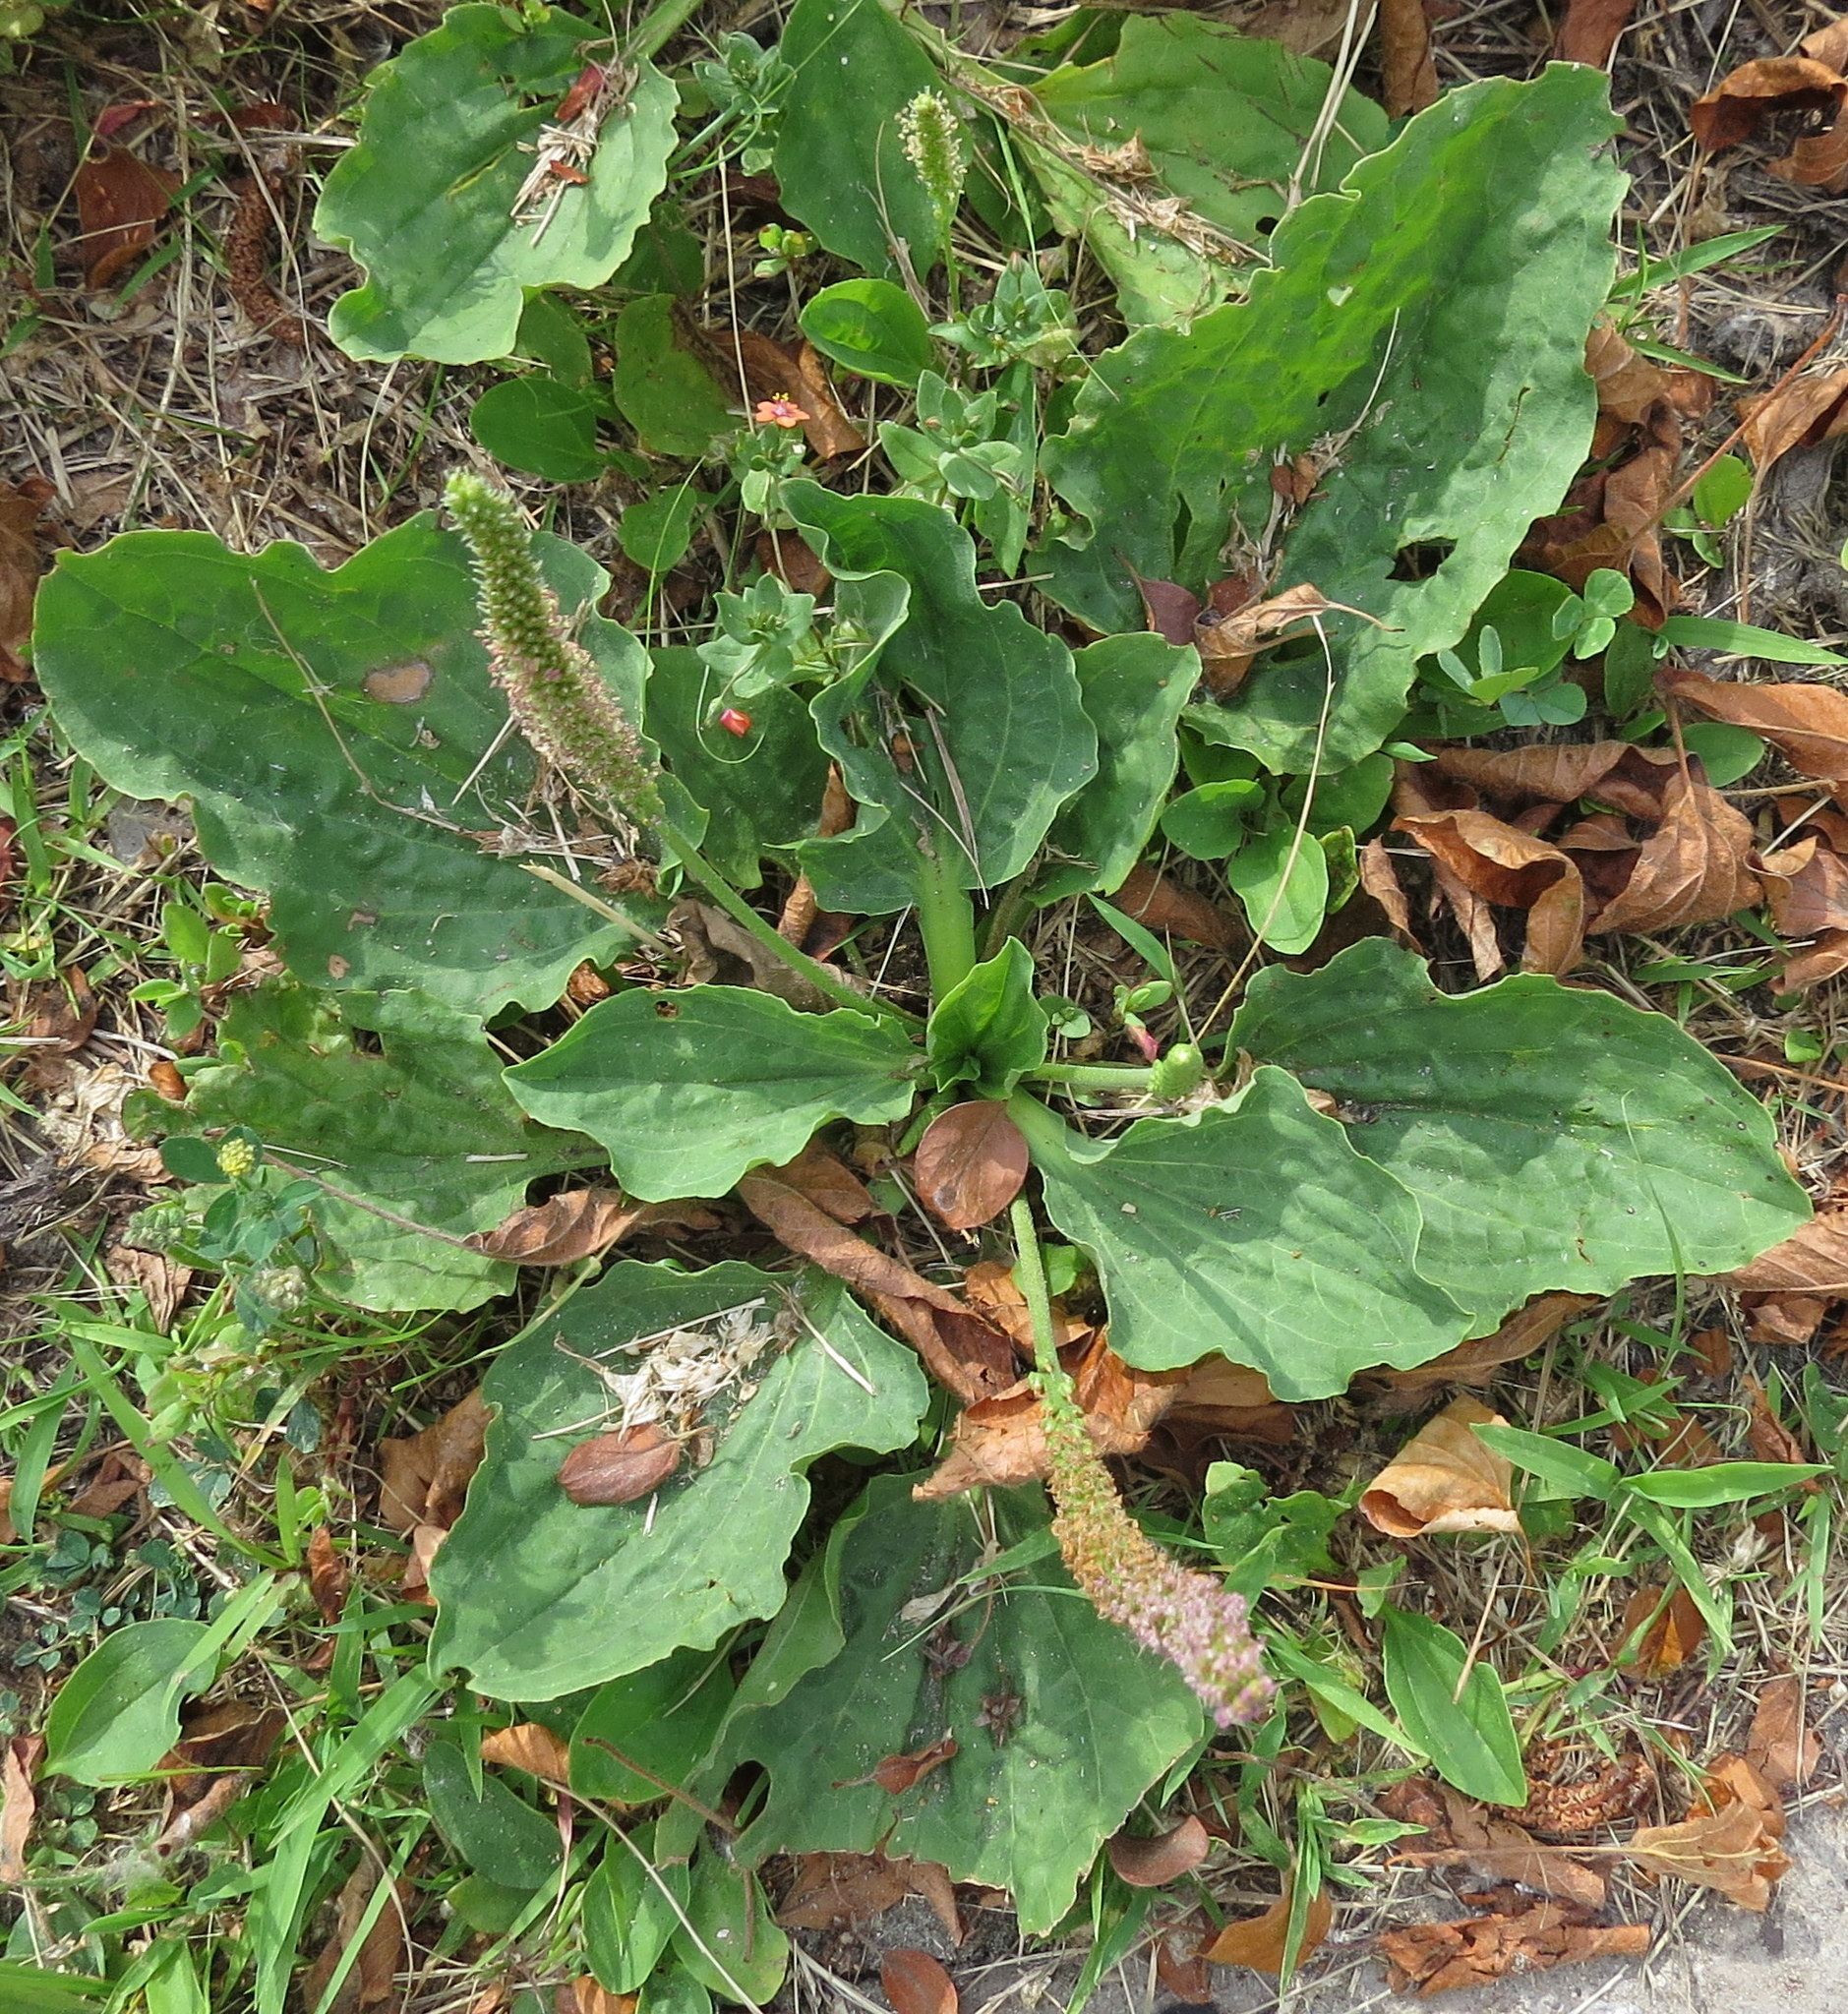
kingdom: Plantae
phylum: Tracheophyta
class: Magnoliopsida
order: Lamiales
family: Plantaginaceae
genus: Plantago
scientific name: Plantago major
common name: Common plantain
